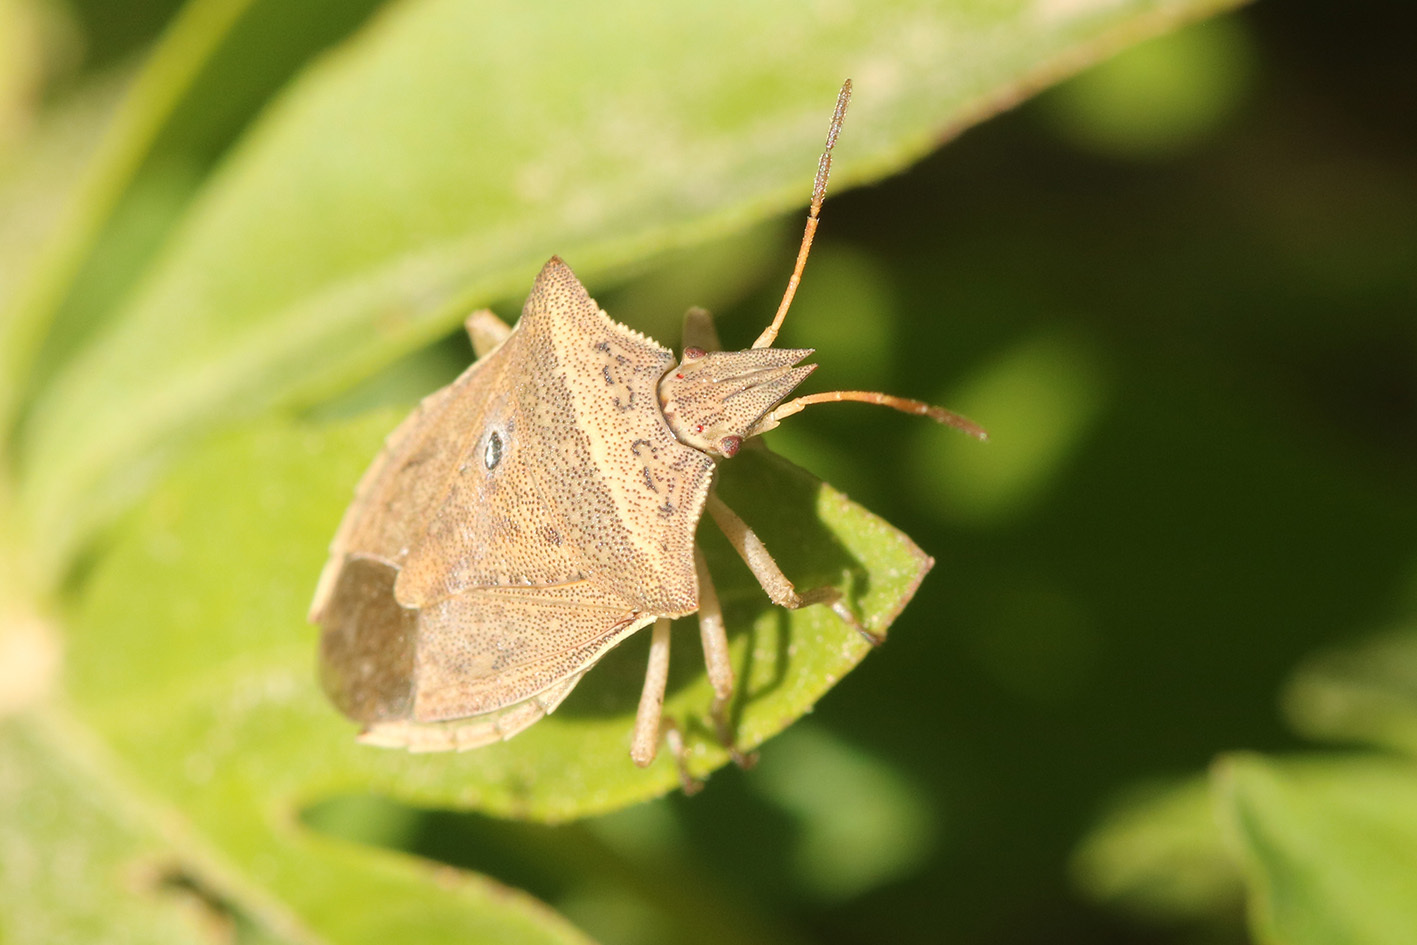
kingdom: Animalia
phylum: Arthropoda
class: Insecta
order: Hemiptera
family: Pentatomidae
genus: Diceraeus
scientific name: Diceraeus furcatus
